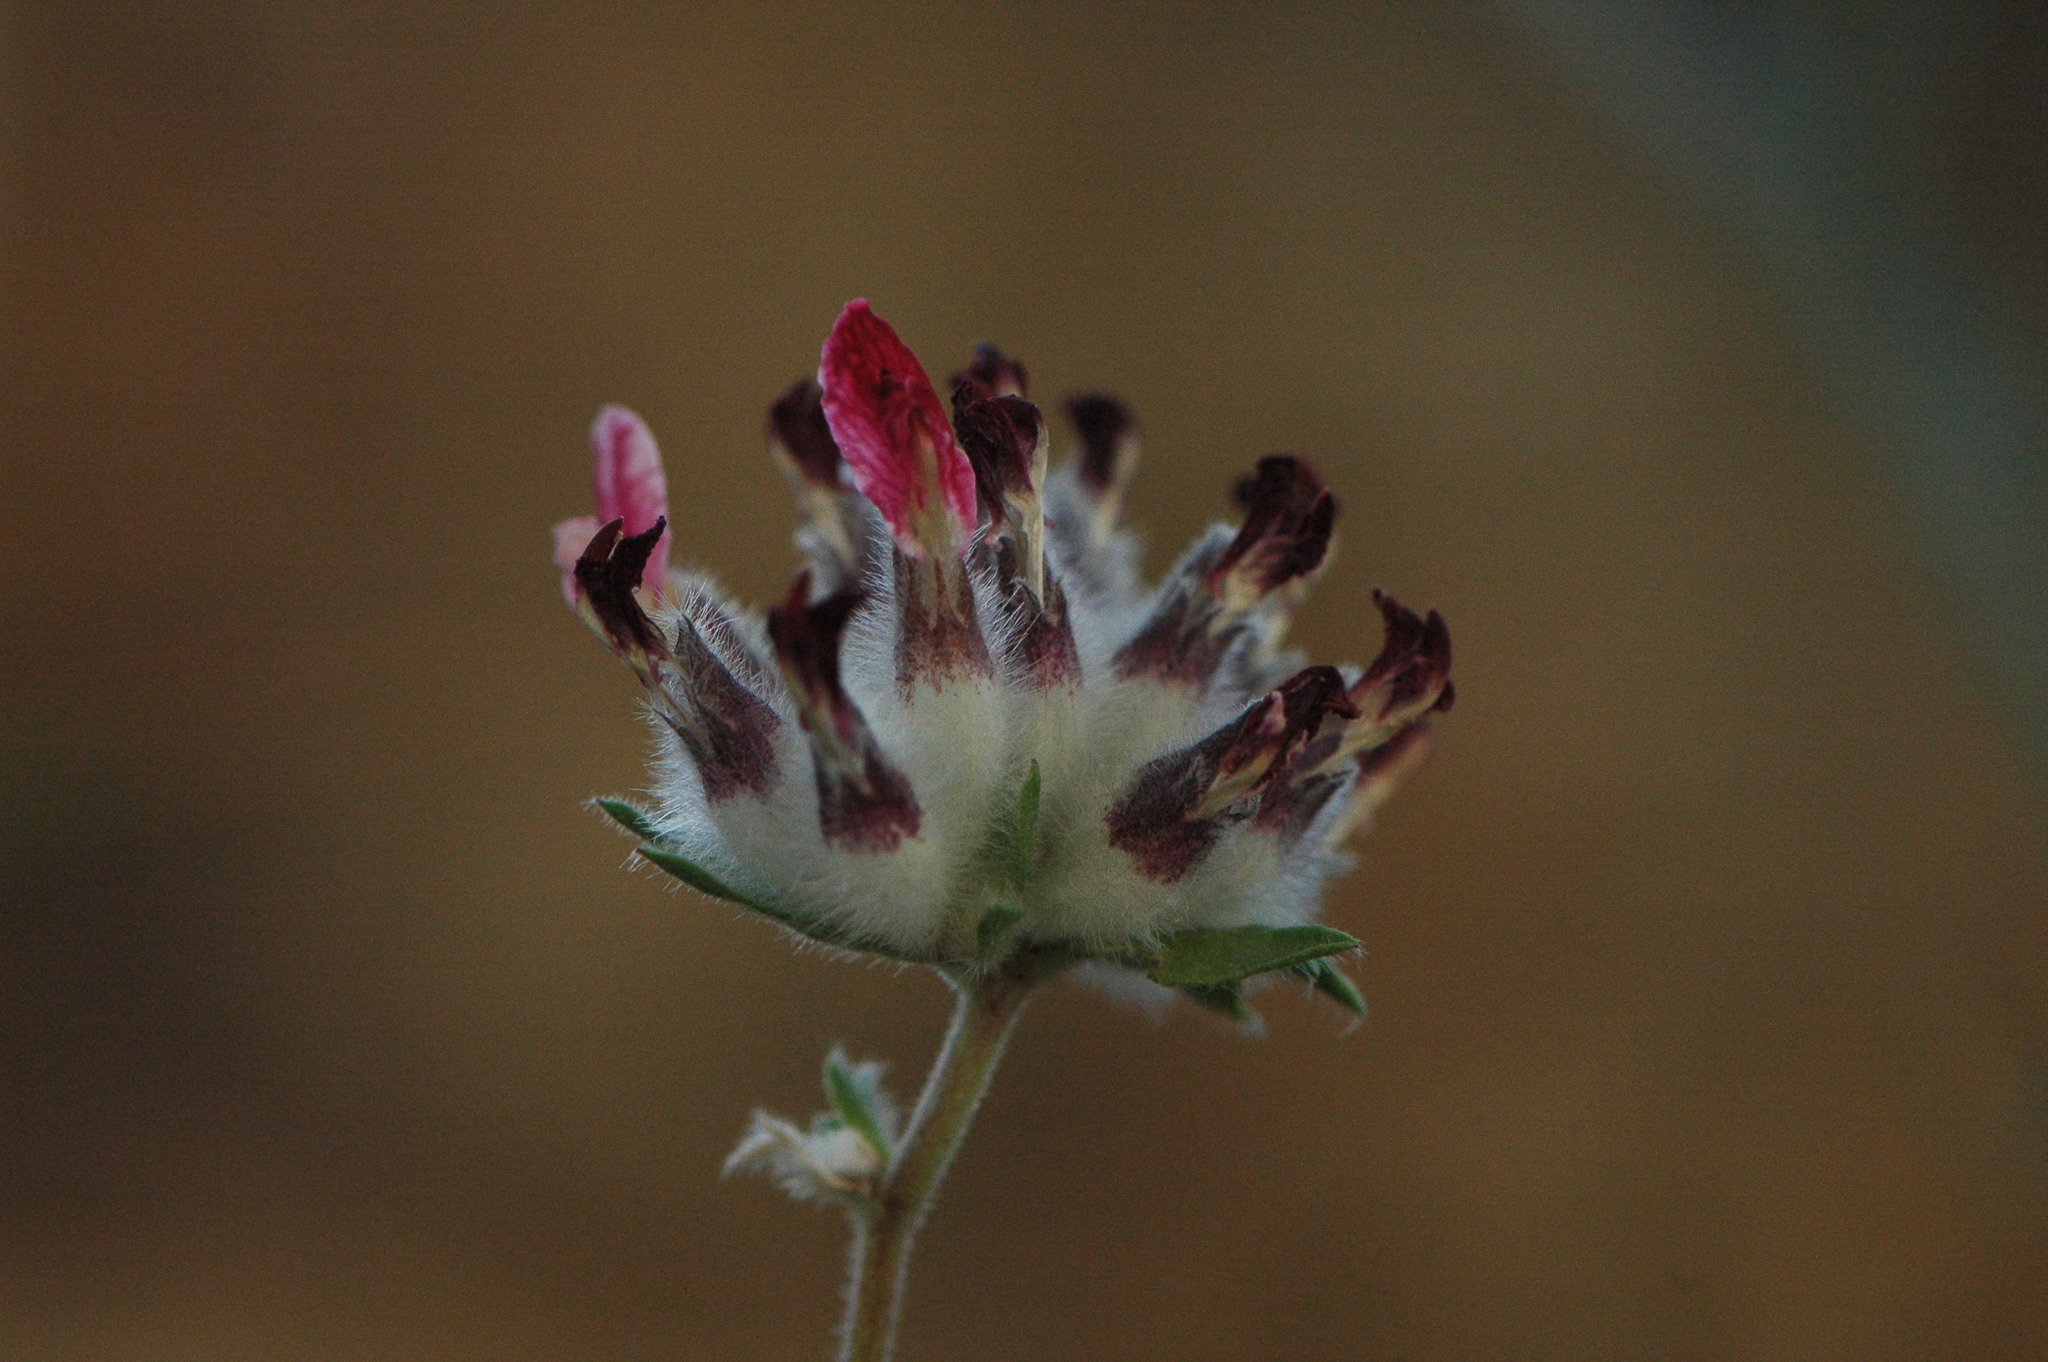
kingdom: Plantae
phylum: Tracheophyta
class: Magnoliopsida
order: Fabales
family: Fabaceae
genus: Anthyllis
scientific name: Anthyllis vulneraria
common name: Kidney vetch
